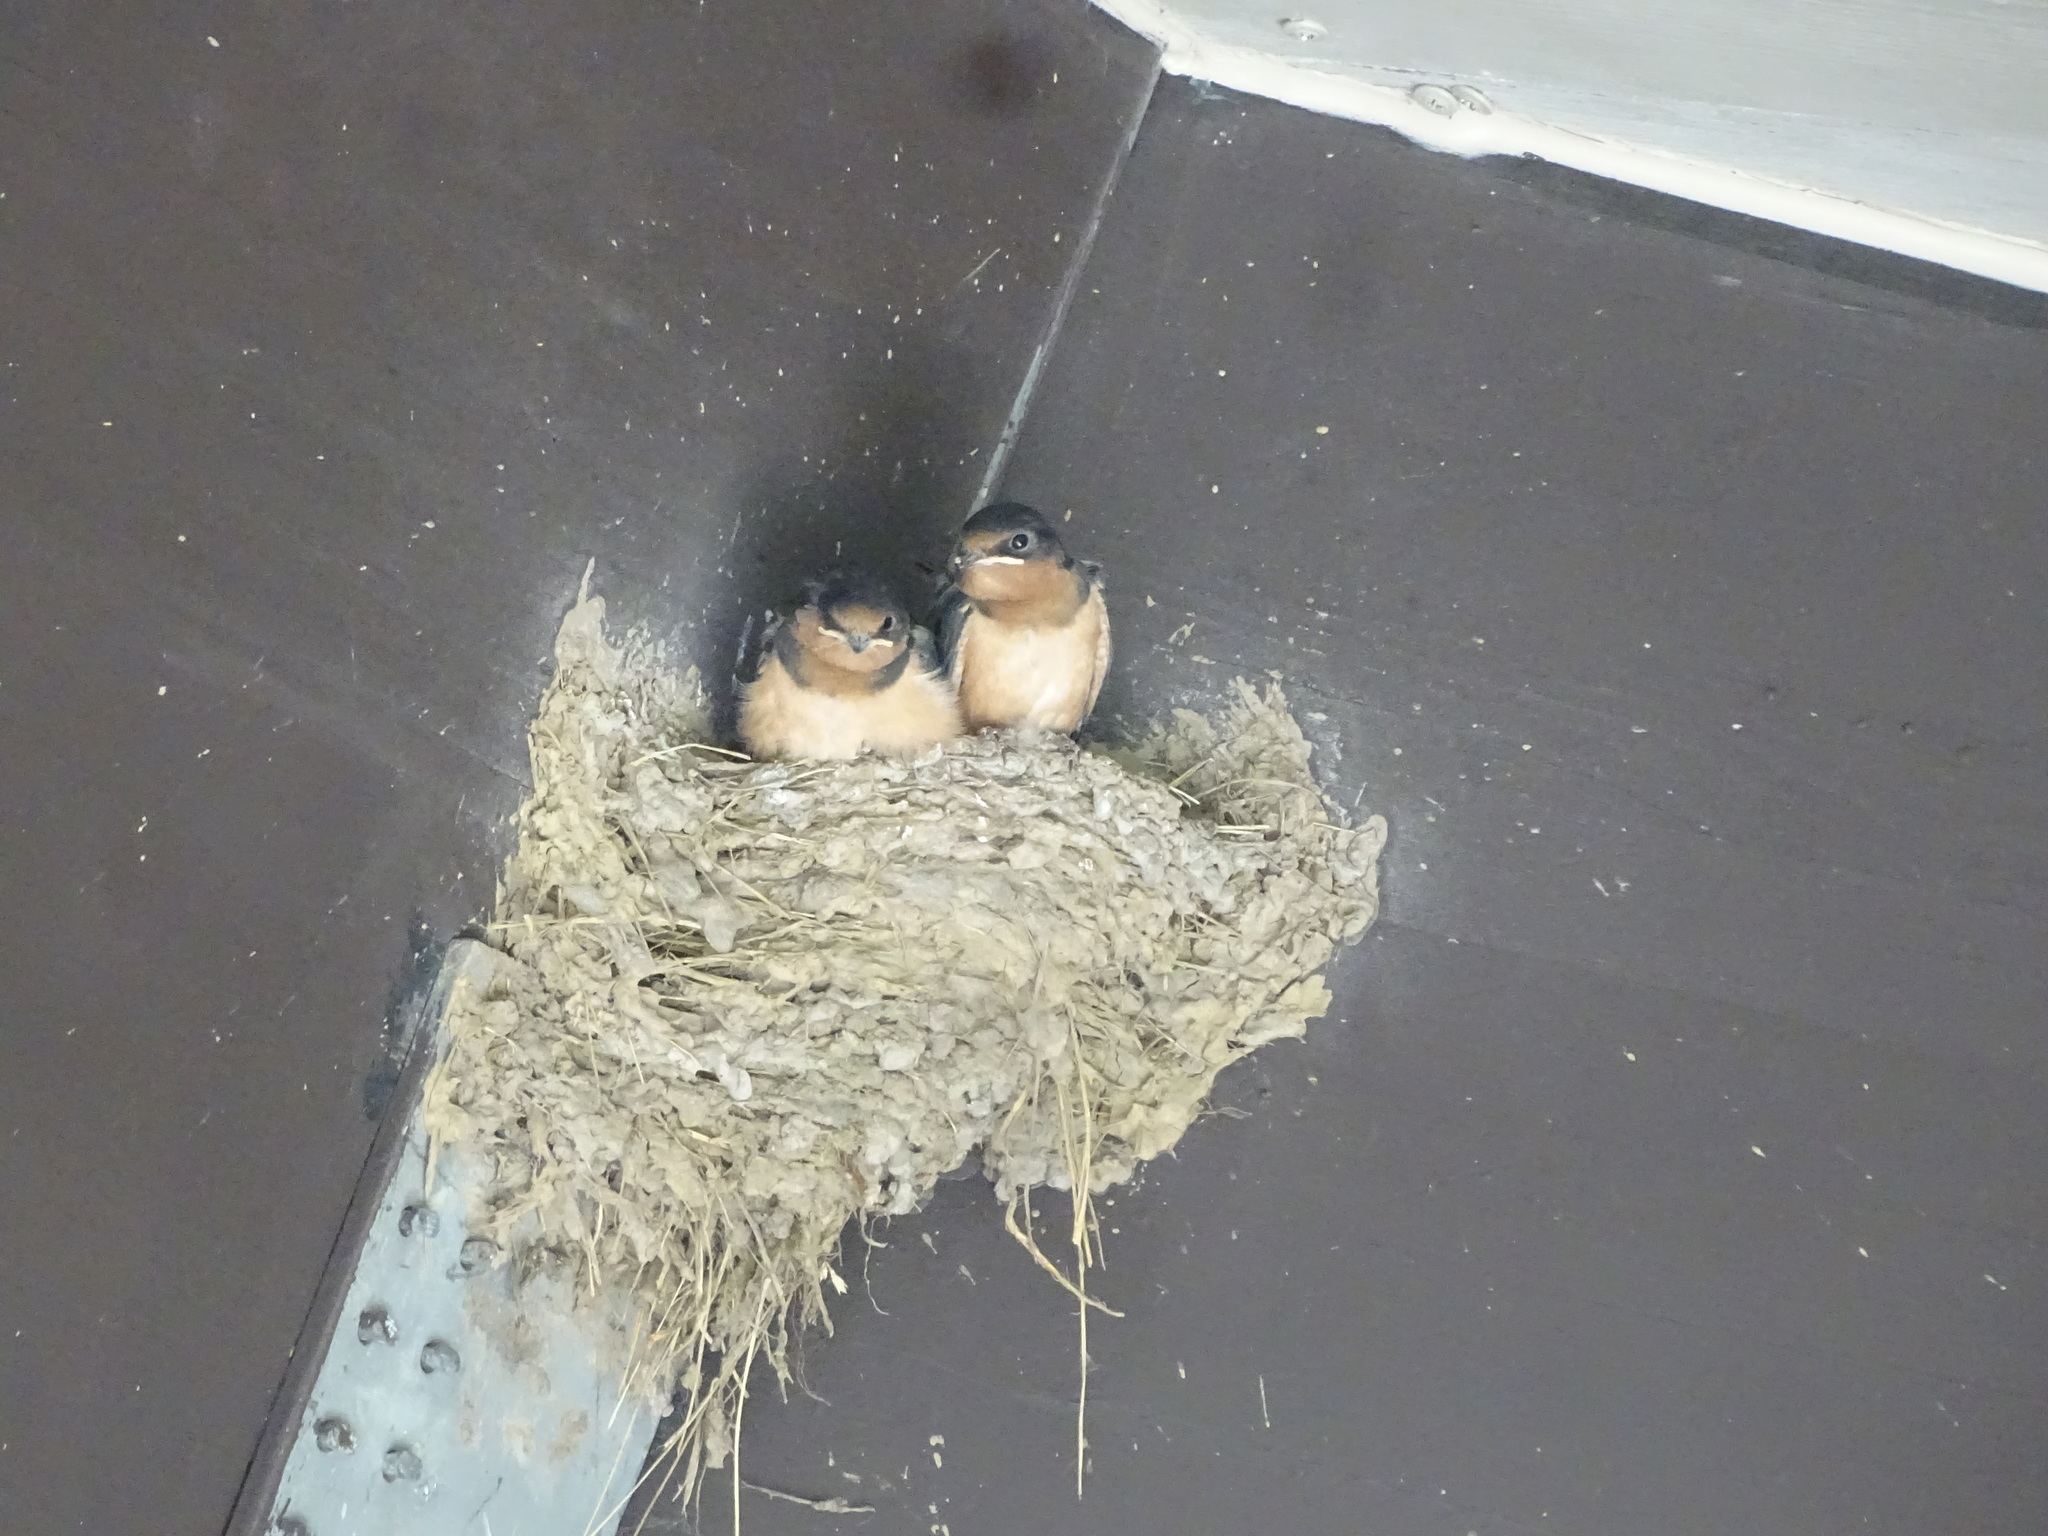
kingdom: Animalia
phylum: Chordata
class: Aves
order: Passeriformes
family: Hirundinidae
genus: Hirundo
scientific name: Hirundo rustica
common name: Barn swallow
